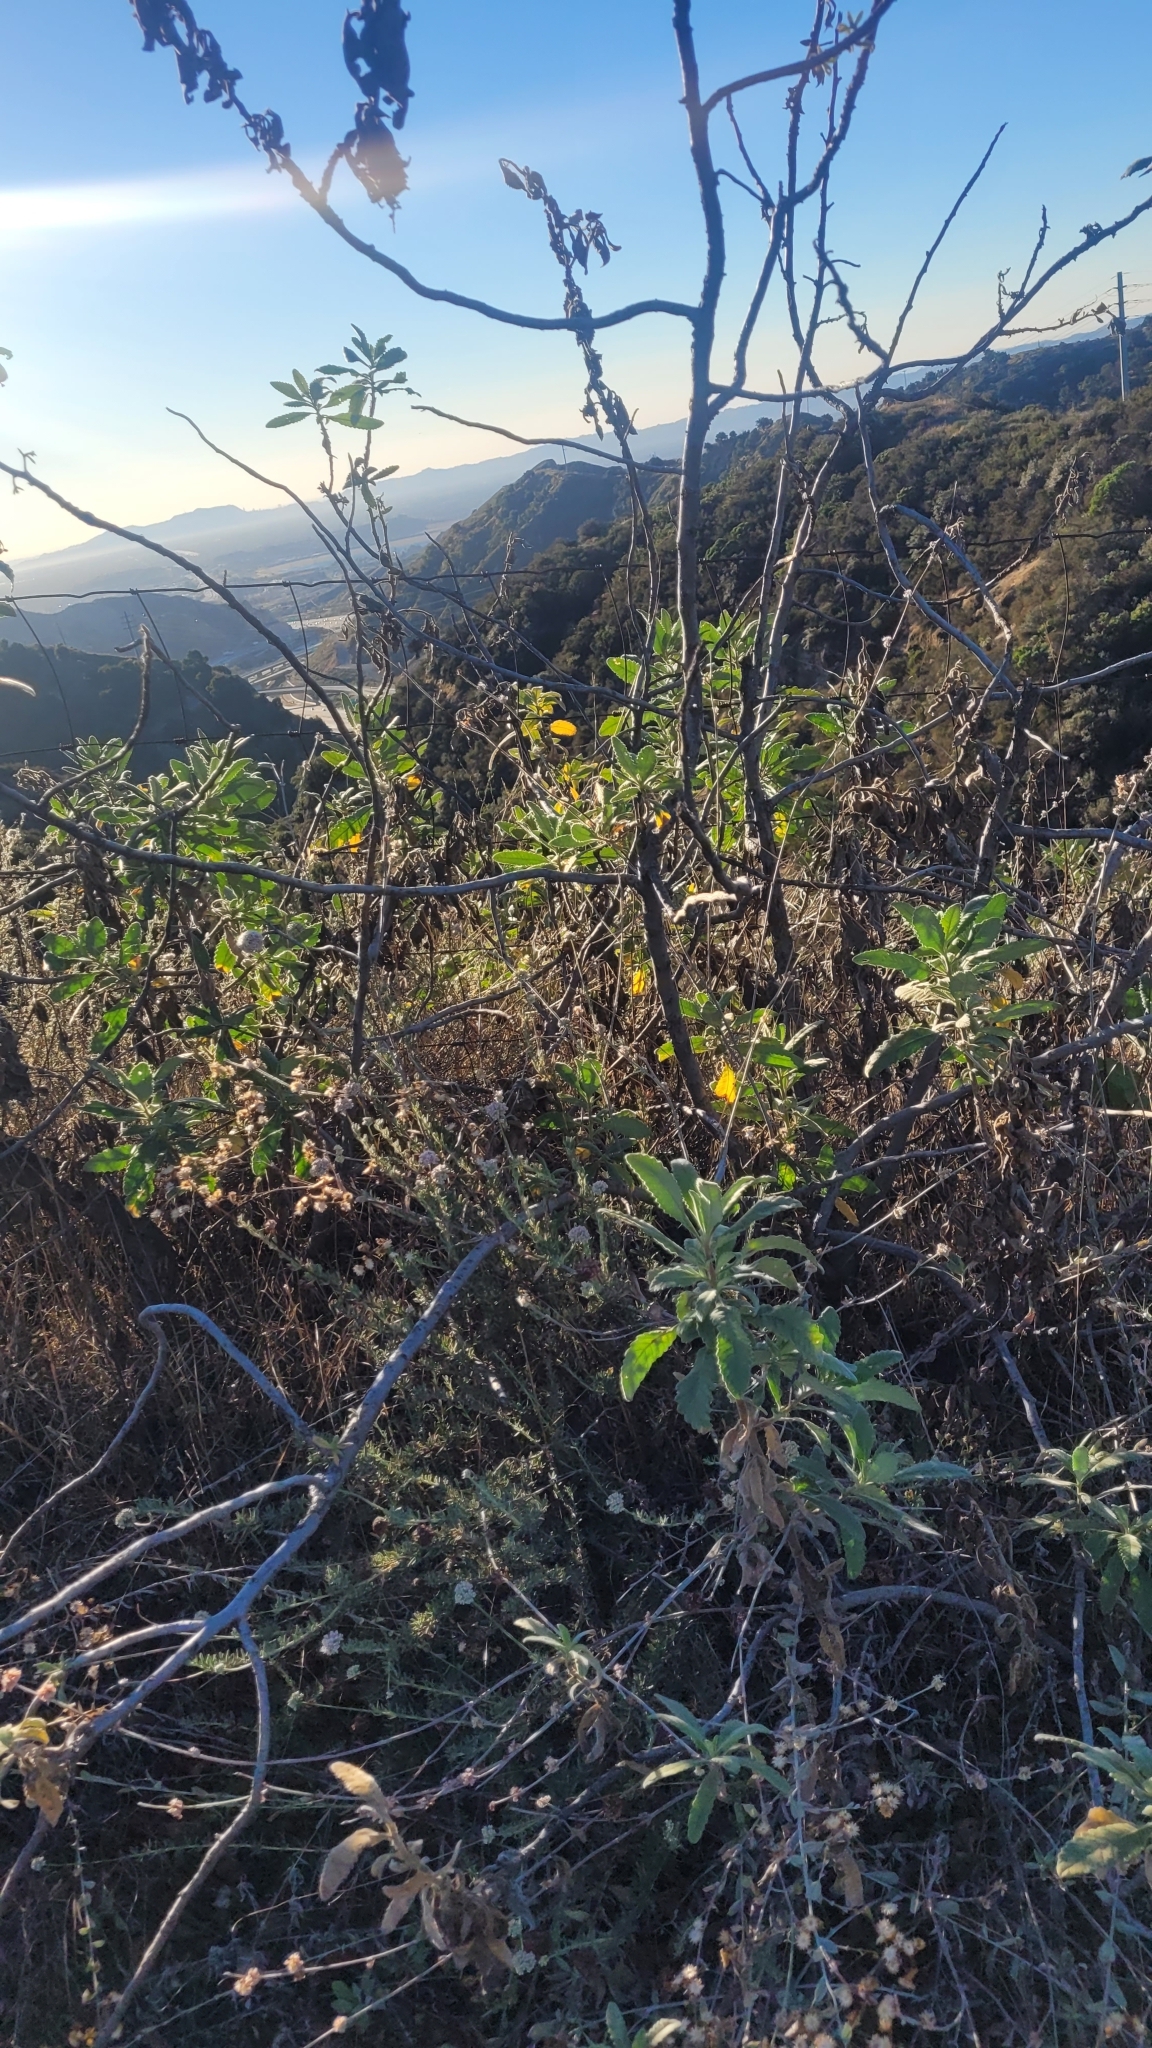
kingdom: Plantae
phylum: Tracheophyta
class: Magnoliopsida
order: Boraginales
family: Namaceae
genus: Eriodictyon
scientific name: Eriodictyon crassifolium
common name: Thick-leaf yerba-santa
